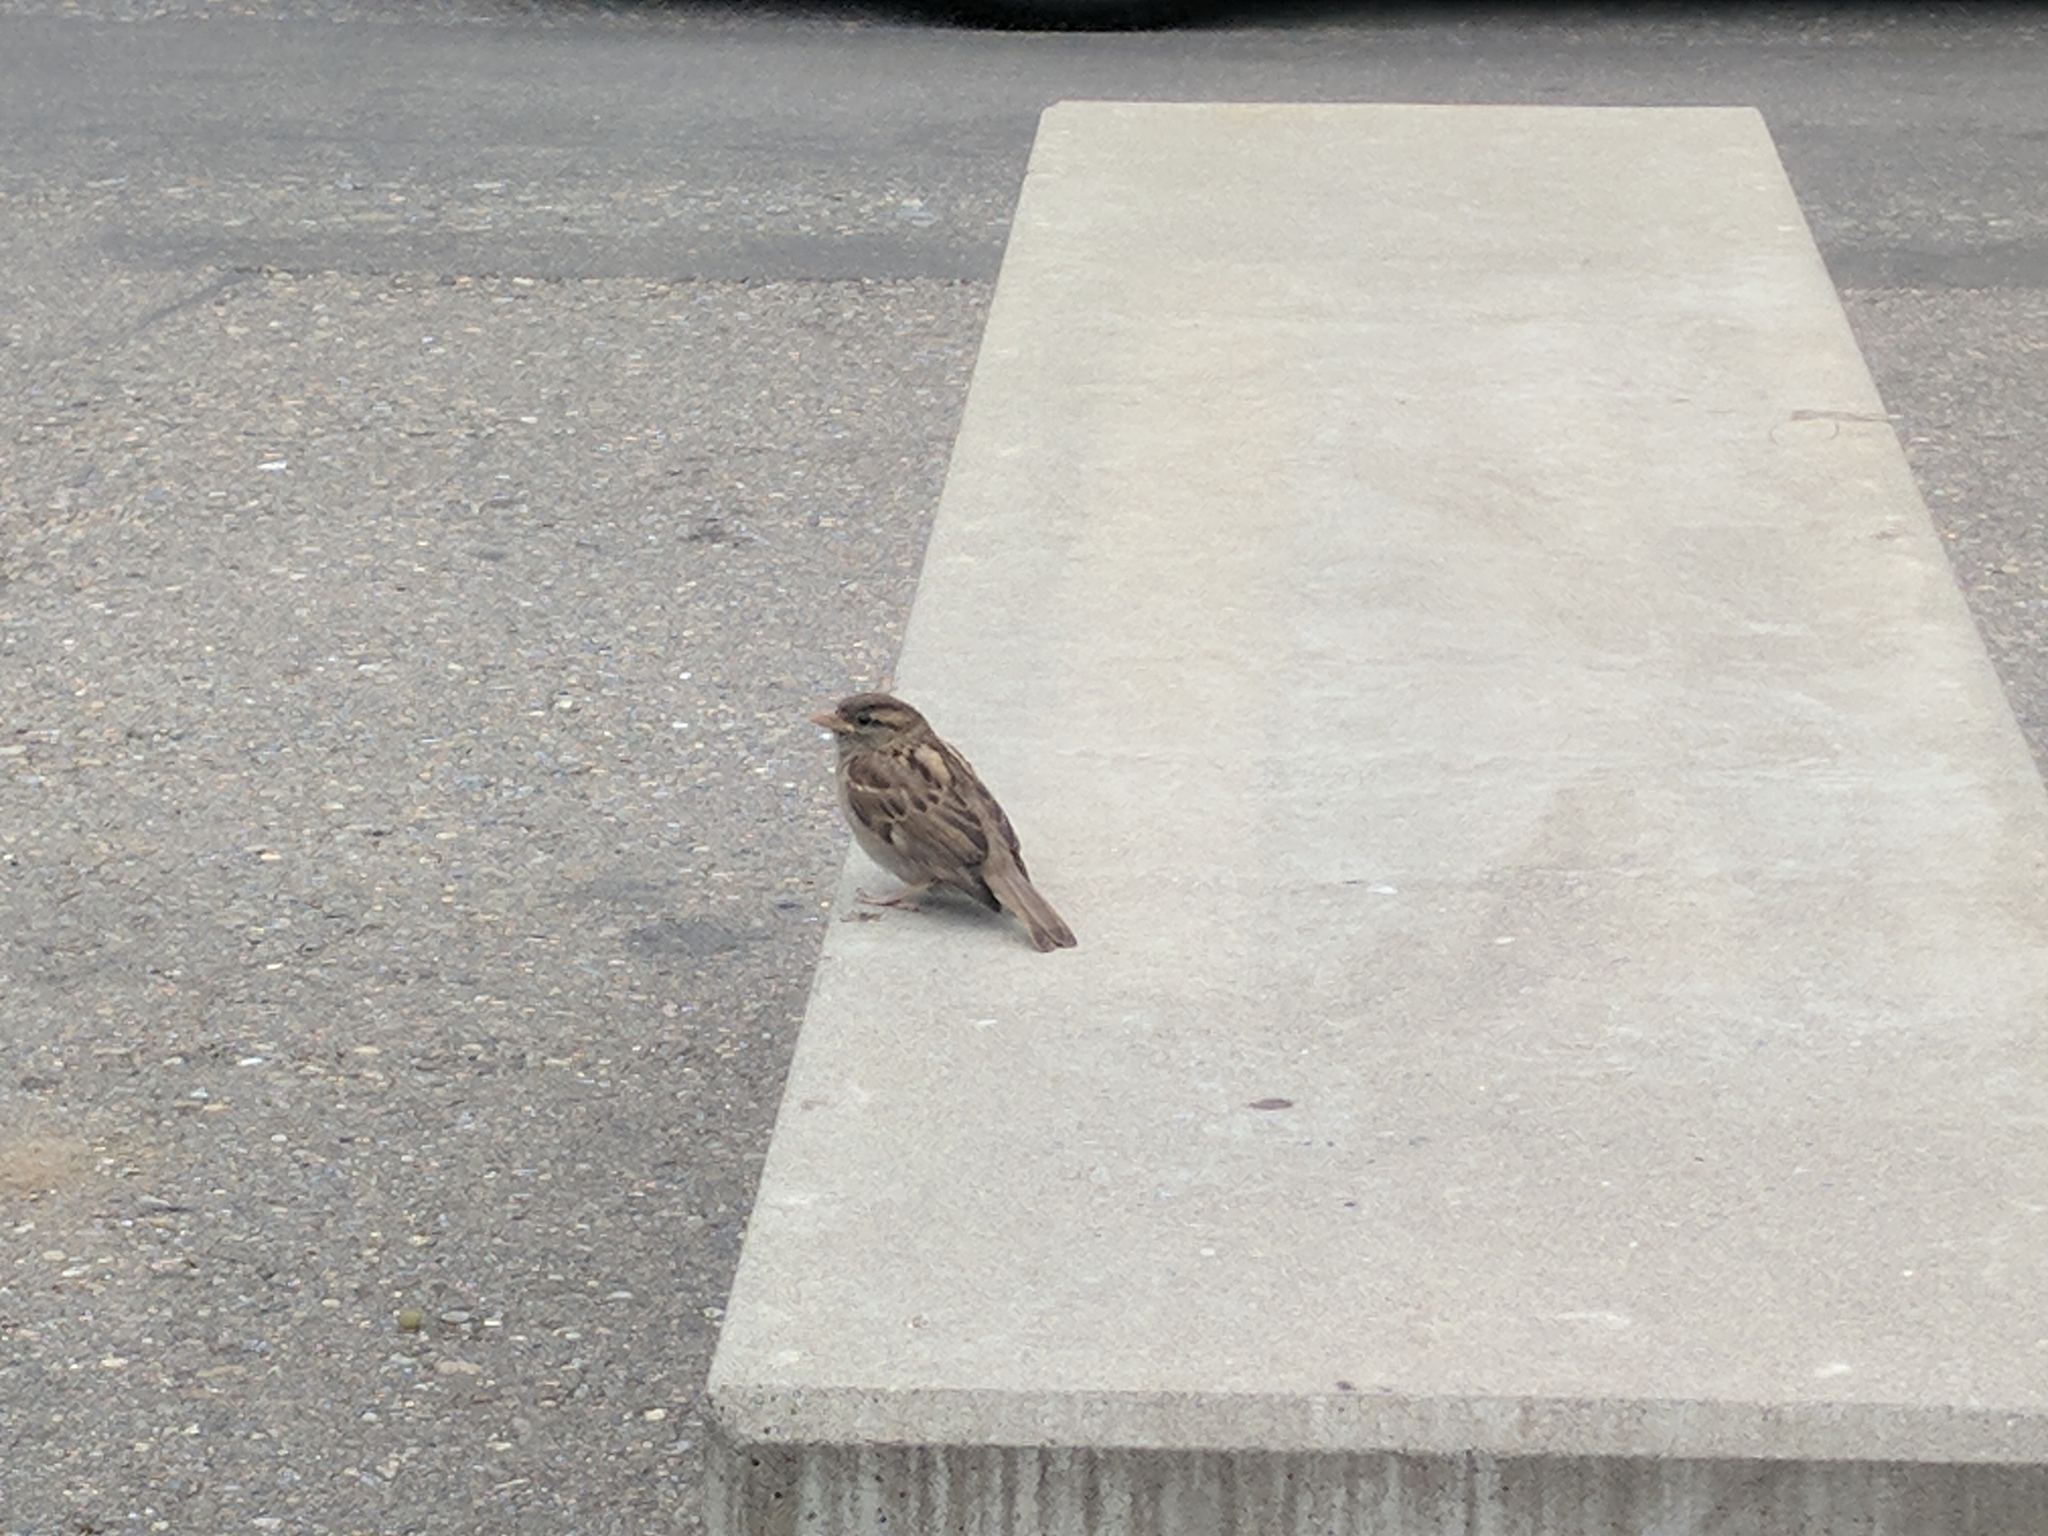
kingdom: Animalia
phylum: Chordata
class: Aves
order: Passeriformes
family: Passeridae
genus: Passer
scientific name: Passer domesticus
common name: House sparrow
